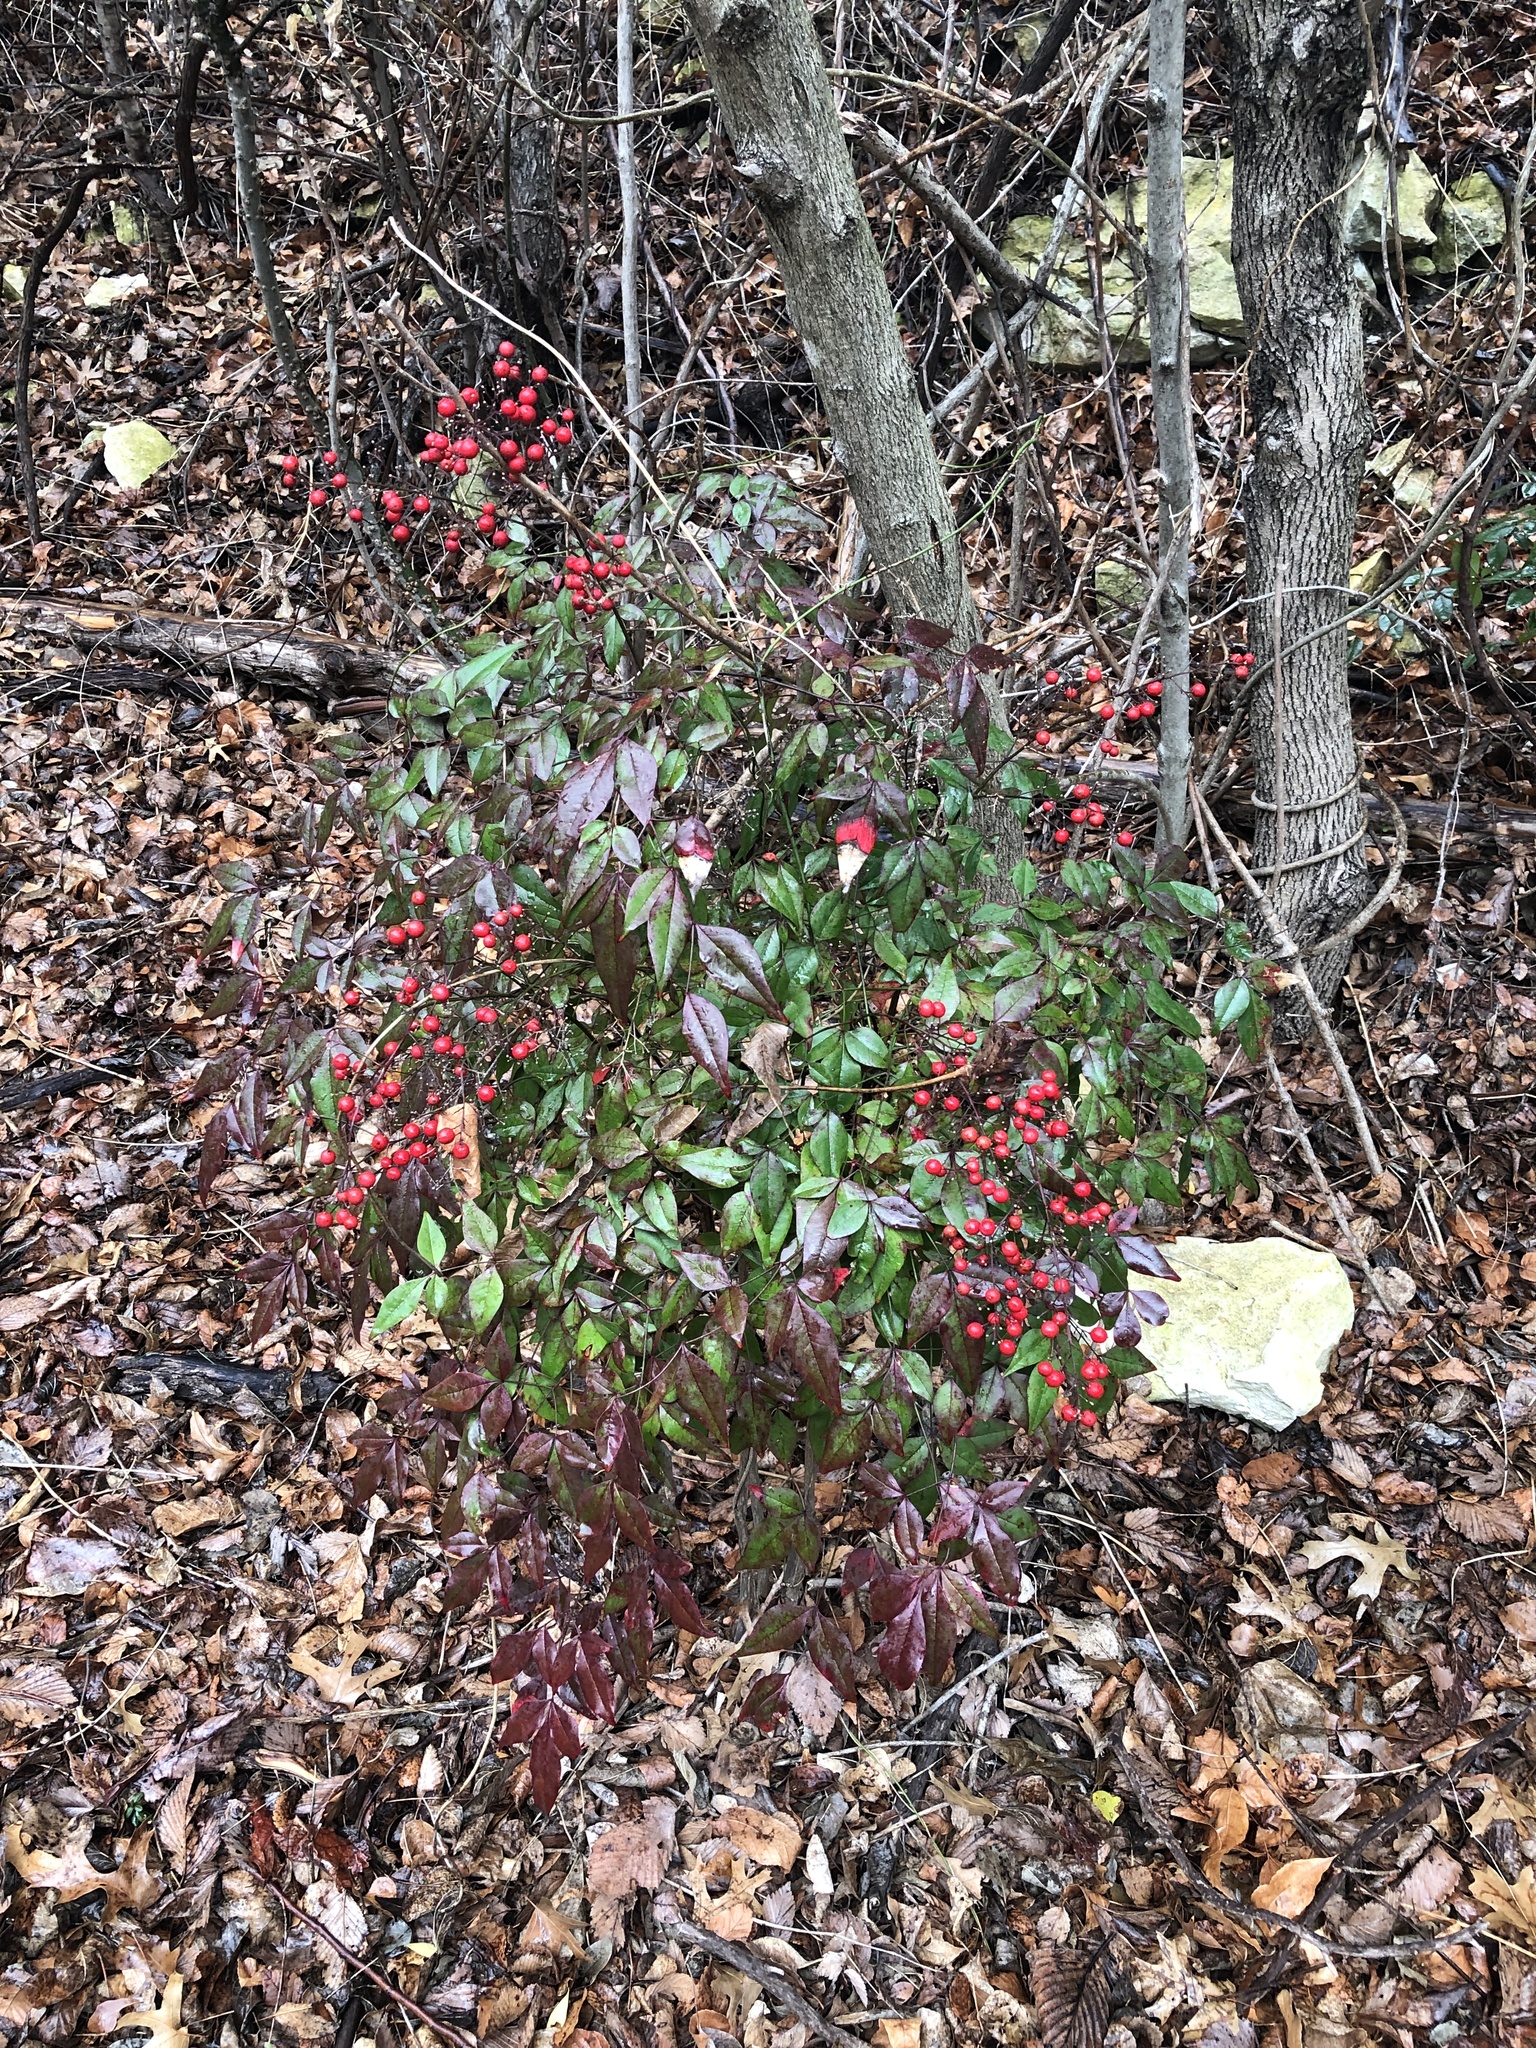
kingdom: Plantae
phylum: Tracheophyta
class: Magnoliopsida
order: Ranunculales
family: Berberidaceae
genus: Nandina
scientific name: Nandina domestica
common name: Sacred bamboo
